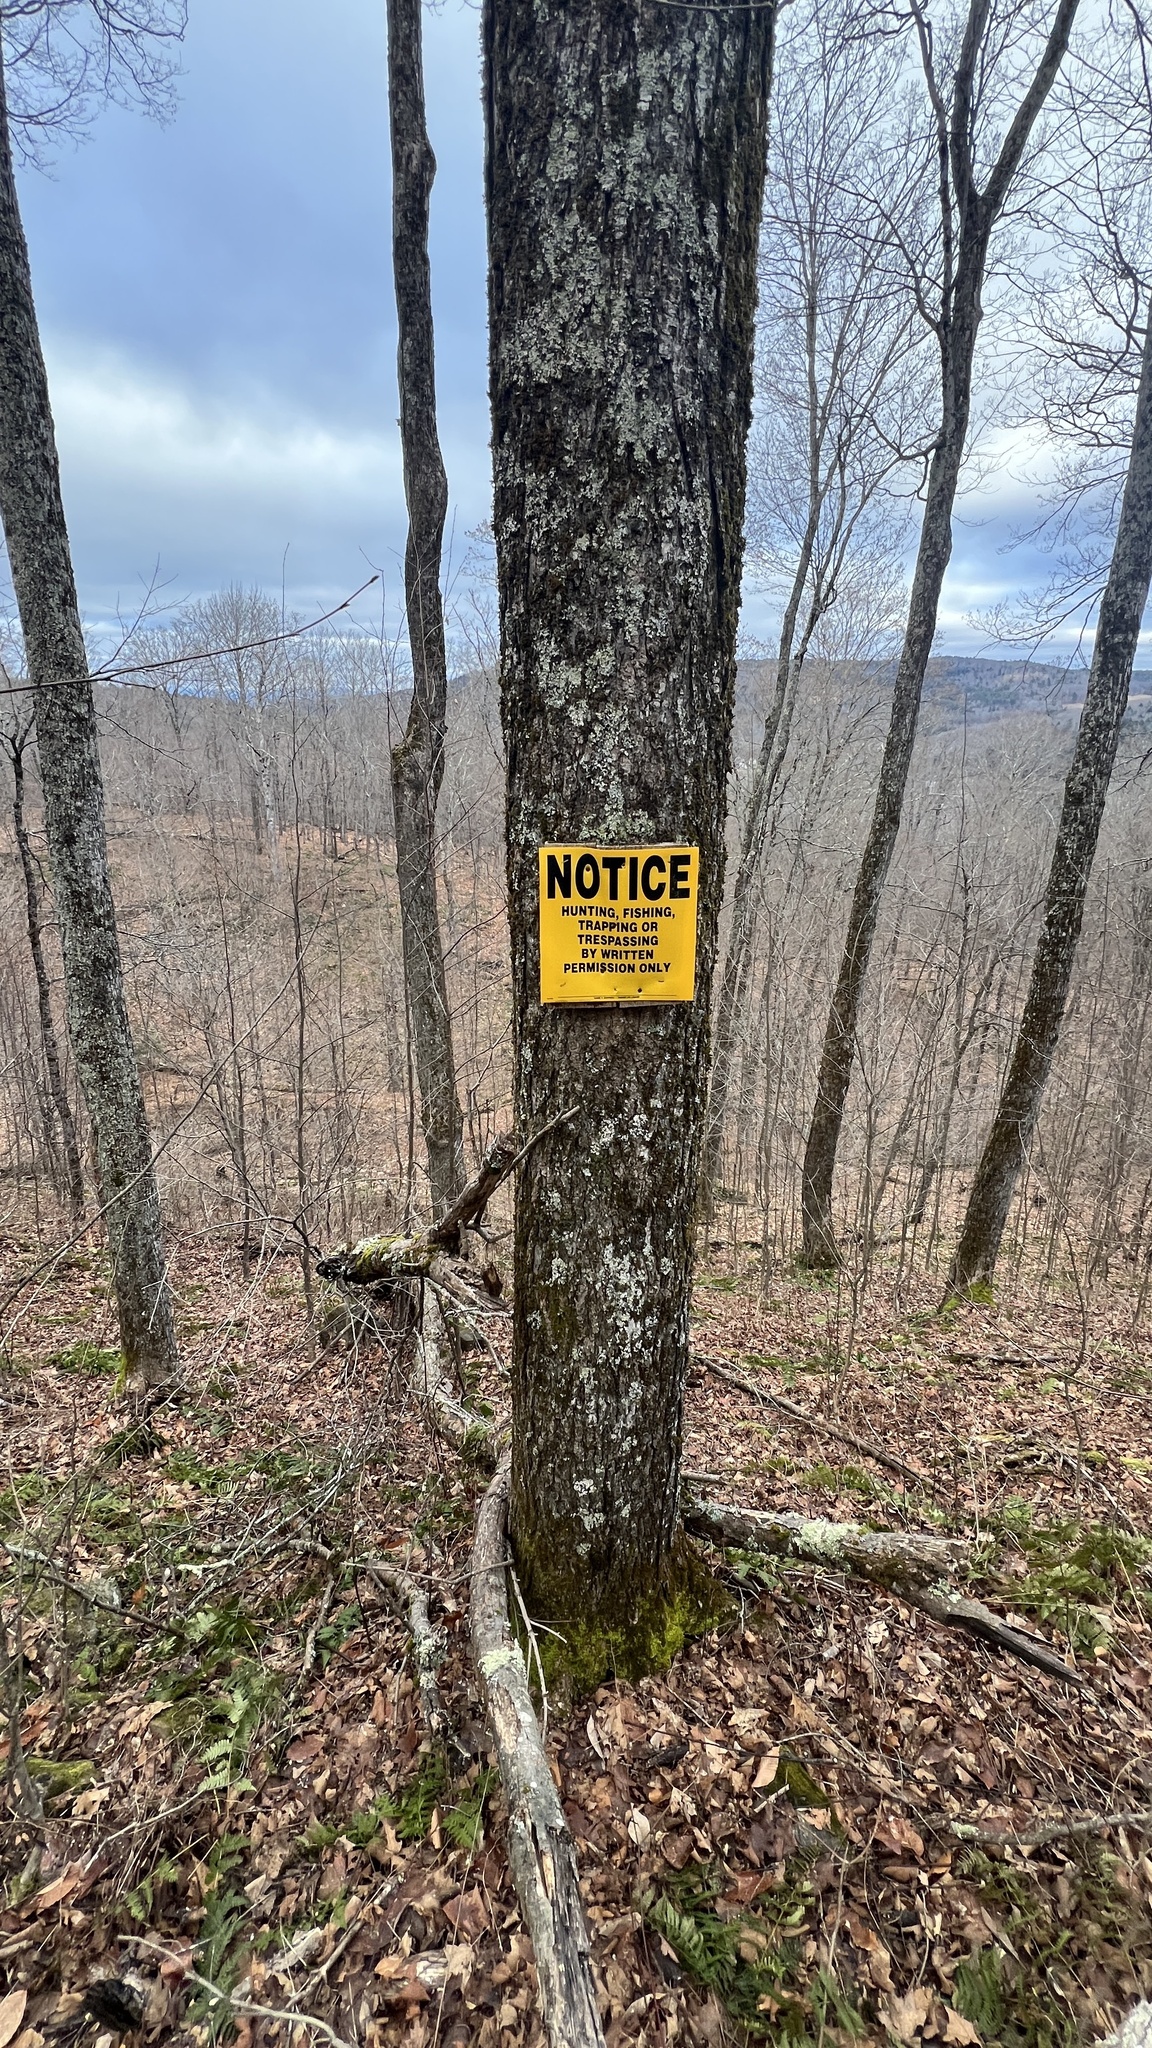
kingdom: Plantae
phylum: Tracheophyta
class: Magnoliopsida
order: Sapindales
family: Sapindaceae
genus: Acer
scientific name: Acer saccharum
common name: Sugar maple
